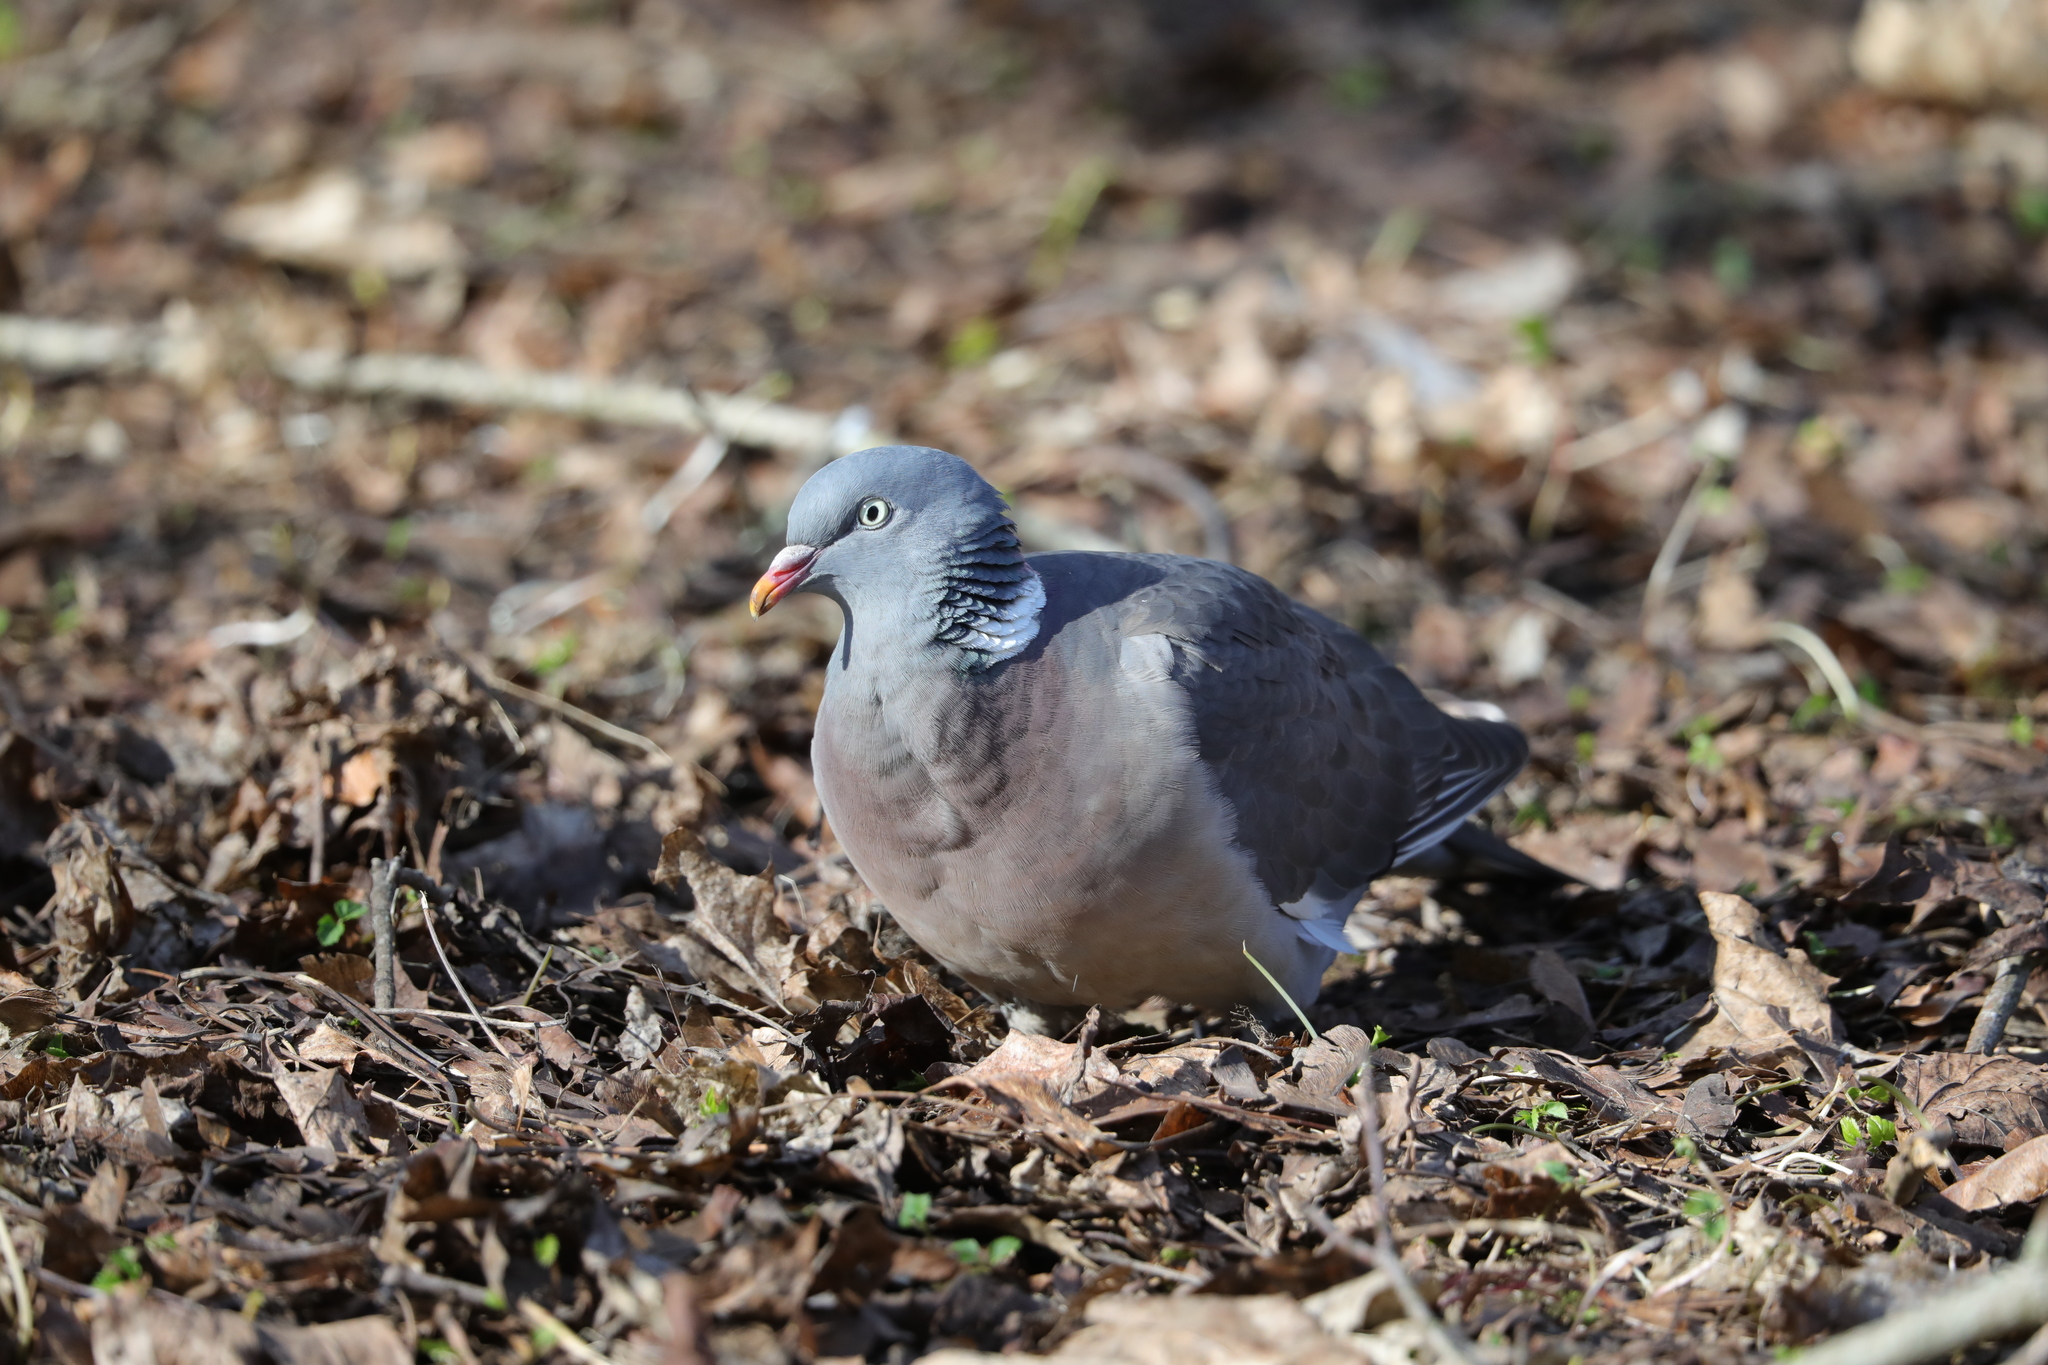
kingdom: Animalia
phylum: Chordata
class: Aves
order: Columbiformes
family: Columbidae
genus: Columba
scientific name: Columba palumbus
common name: Common wood pigeon
